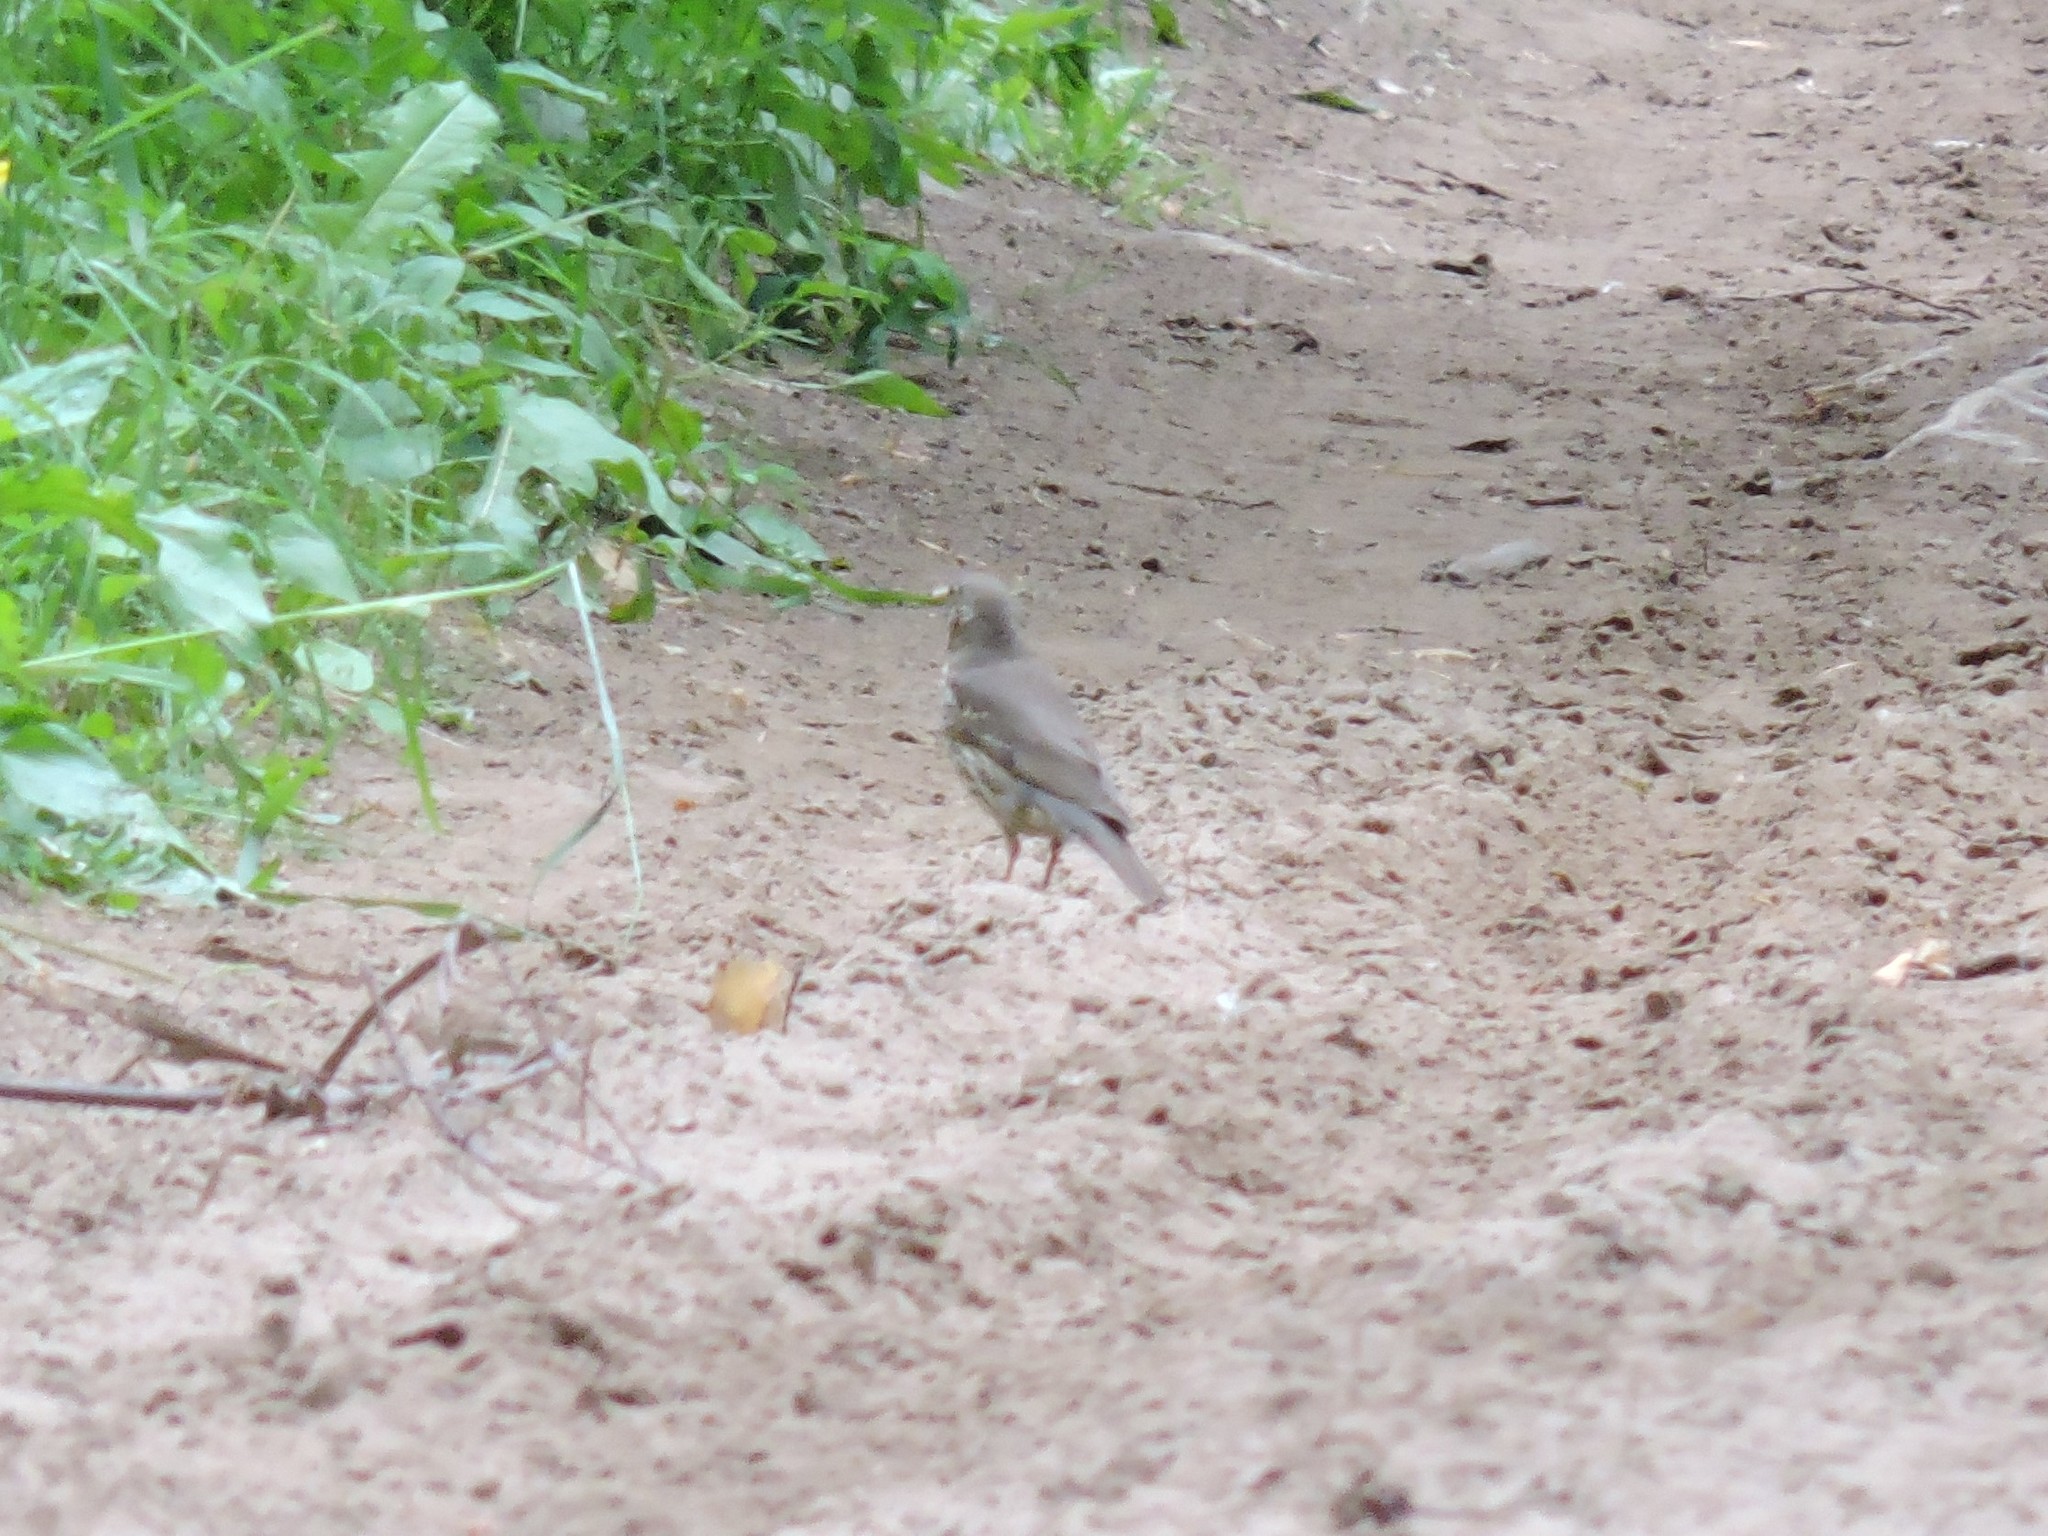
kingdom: Animalia
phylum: Chordata
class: Aves
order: Passeriformes
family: Turdidae
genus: Turdus
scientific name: Turdus philomelos
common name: Song thrush
